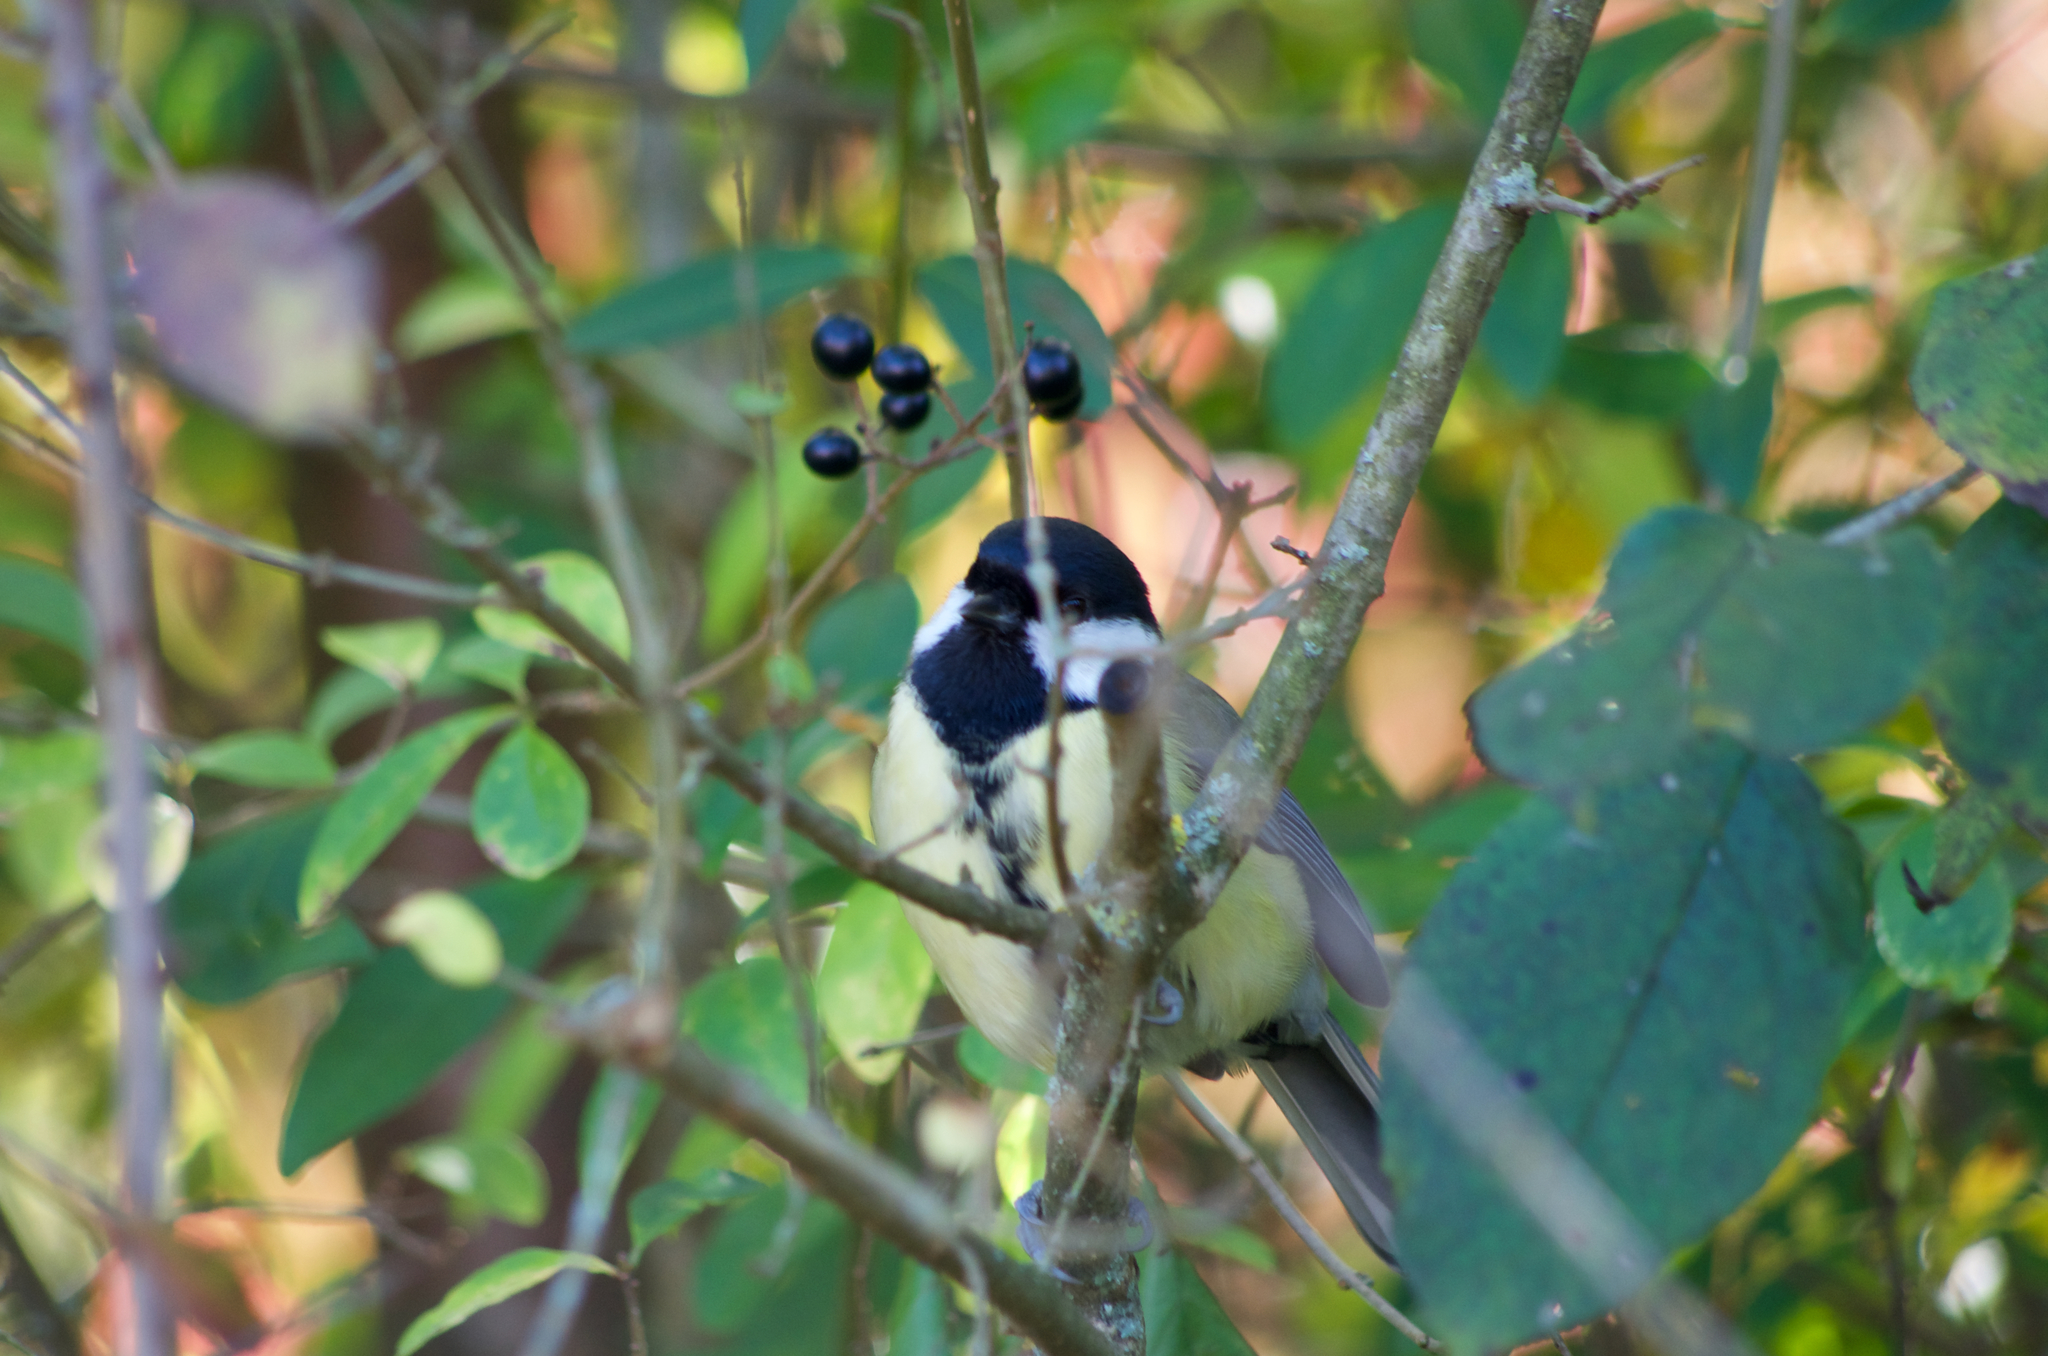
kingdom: Animalia
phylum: Chordata
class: Aves
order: Passeriformes
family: Paridae
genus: Parus
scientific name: Parus major
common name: Great tit
